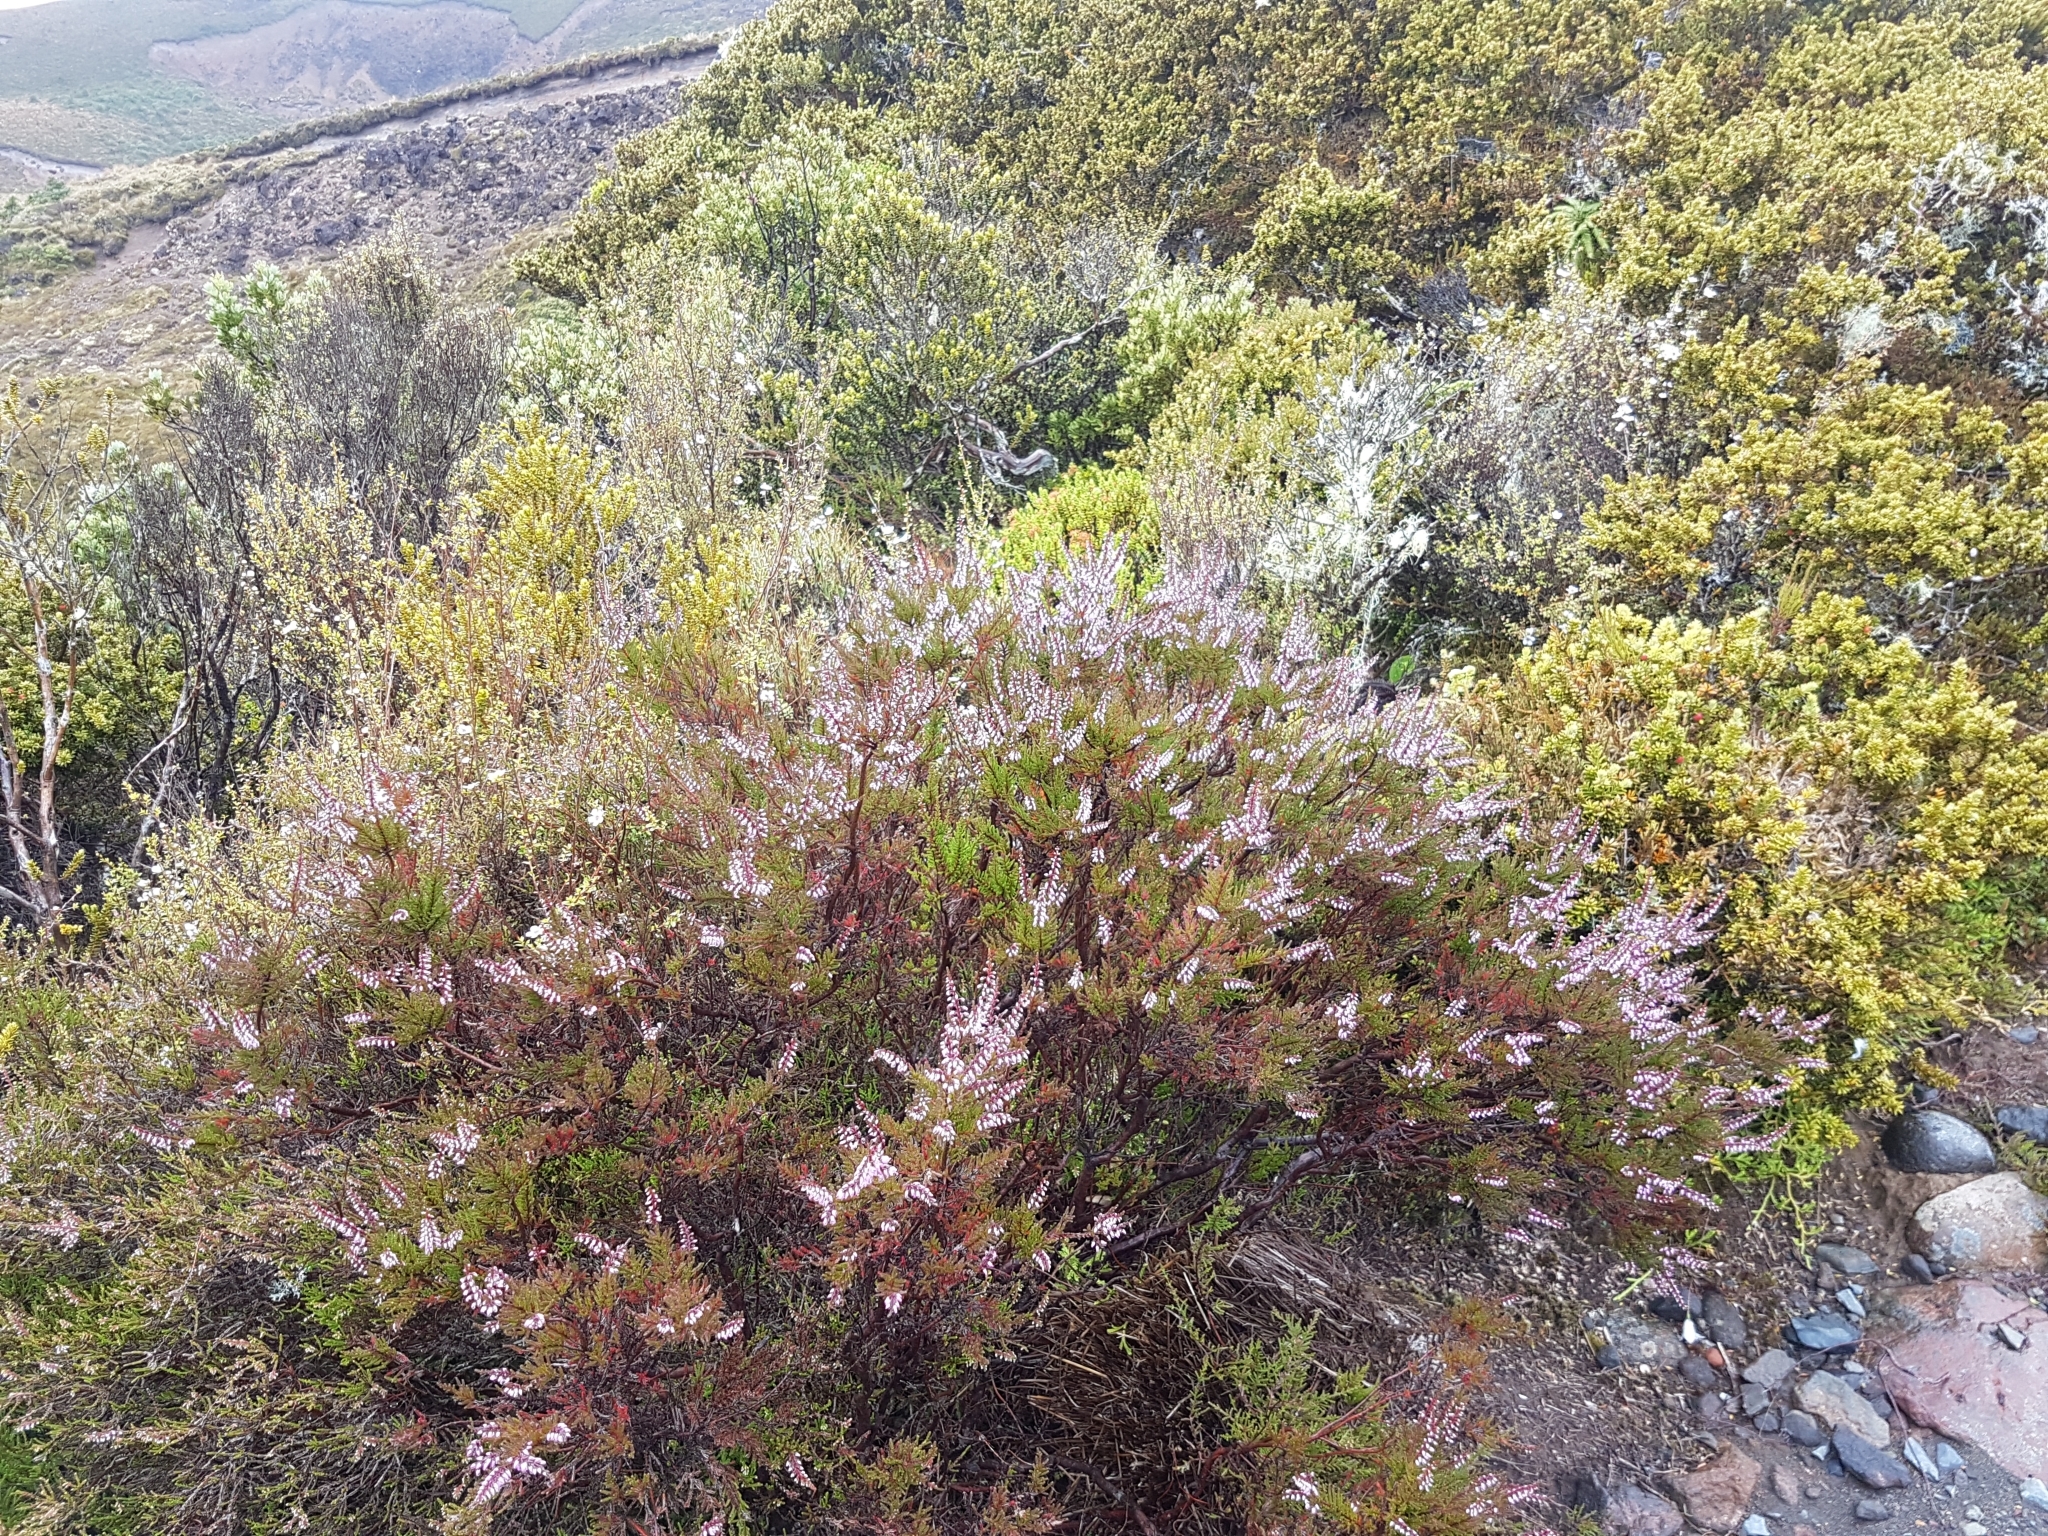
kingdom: Plantae
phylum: Tracheophyta
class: Magnoliopsida
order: Ericales
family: Ericaceae
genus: Calluna
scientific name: Calluna vulgaris
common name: Heather
